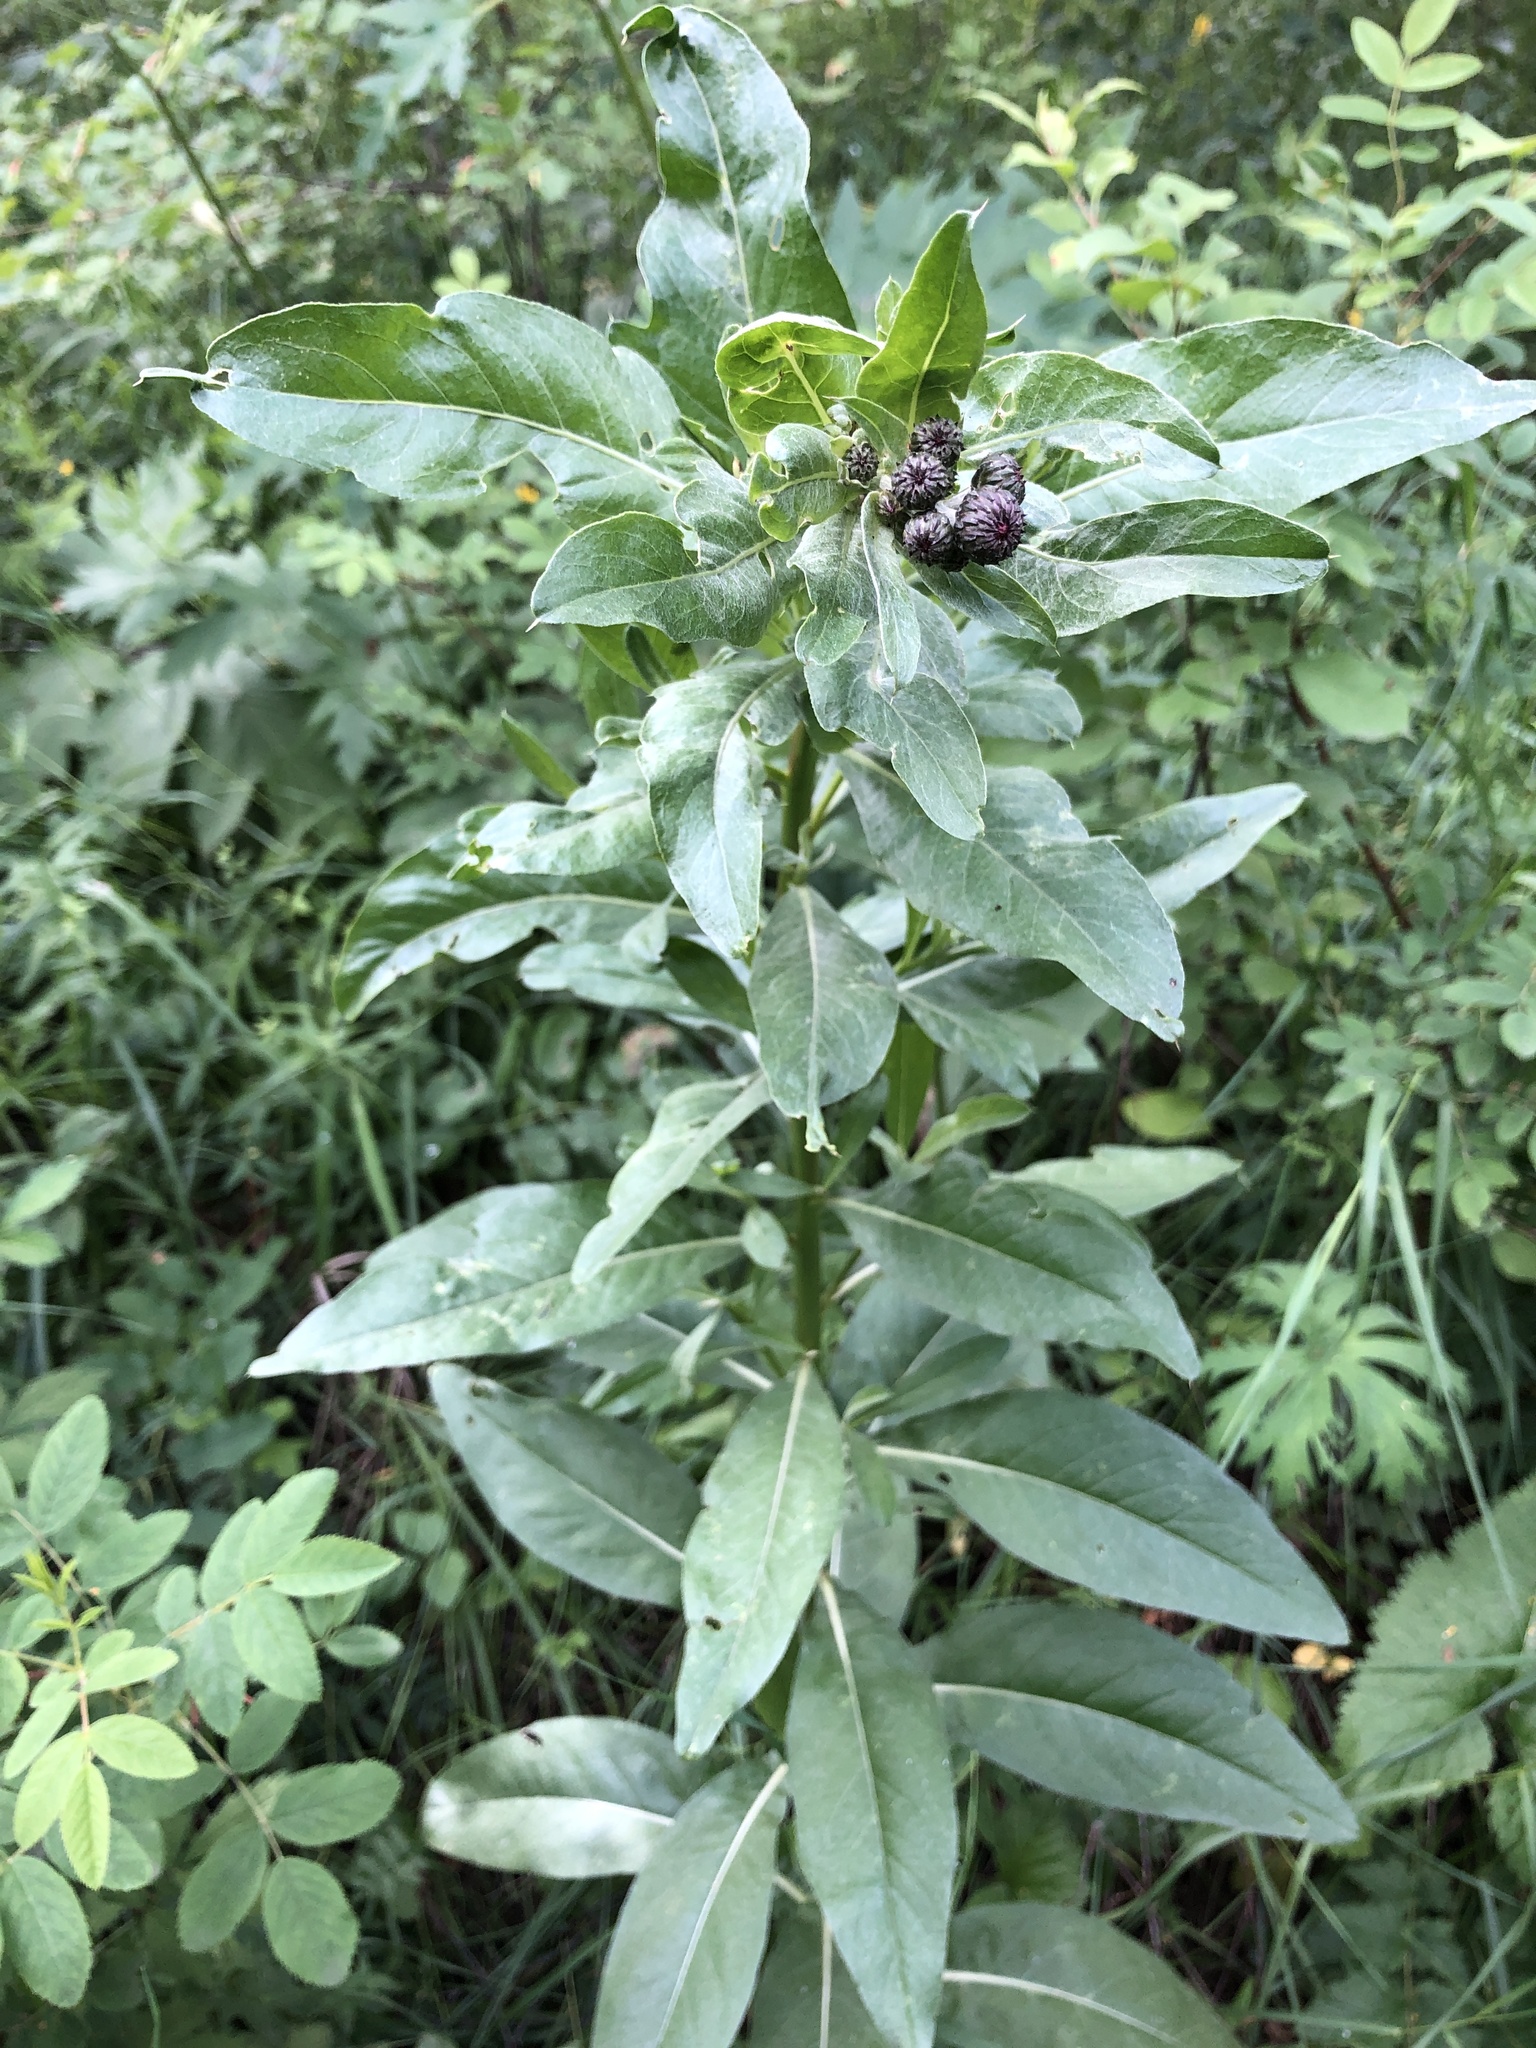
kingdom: Plantae
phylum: Tracheophyta
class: Magnoliopsida
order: Asterales
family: Asteraceae
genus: Cirsium
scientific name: Cirsium arvense
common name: Creeping thistle
